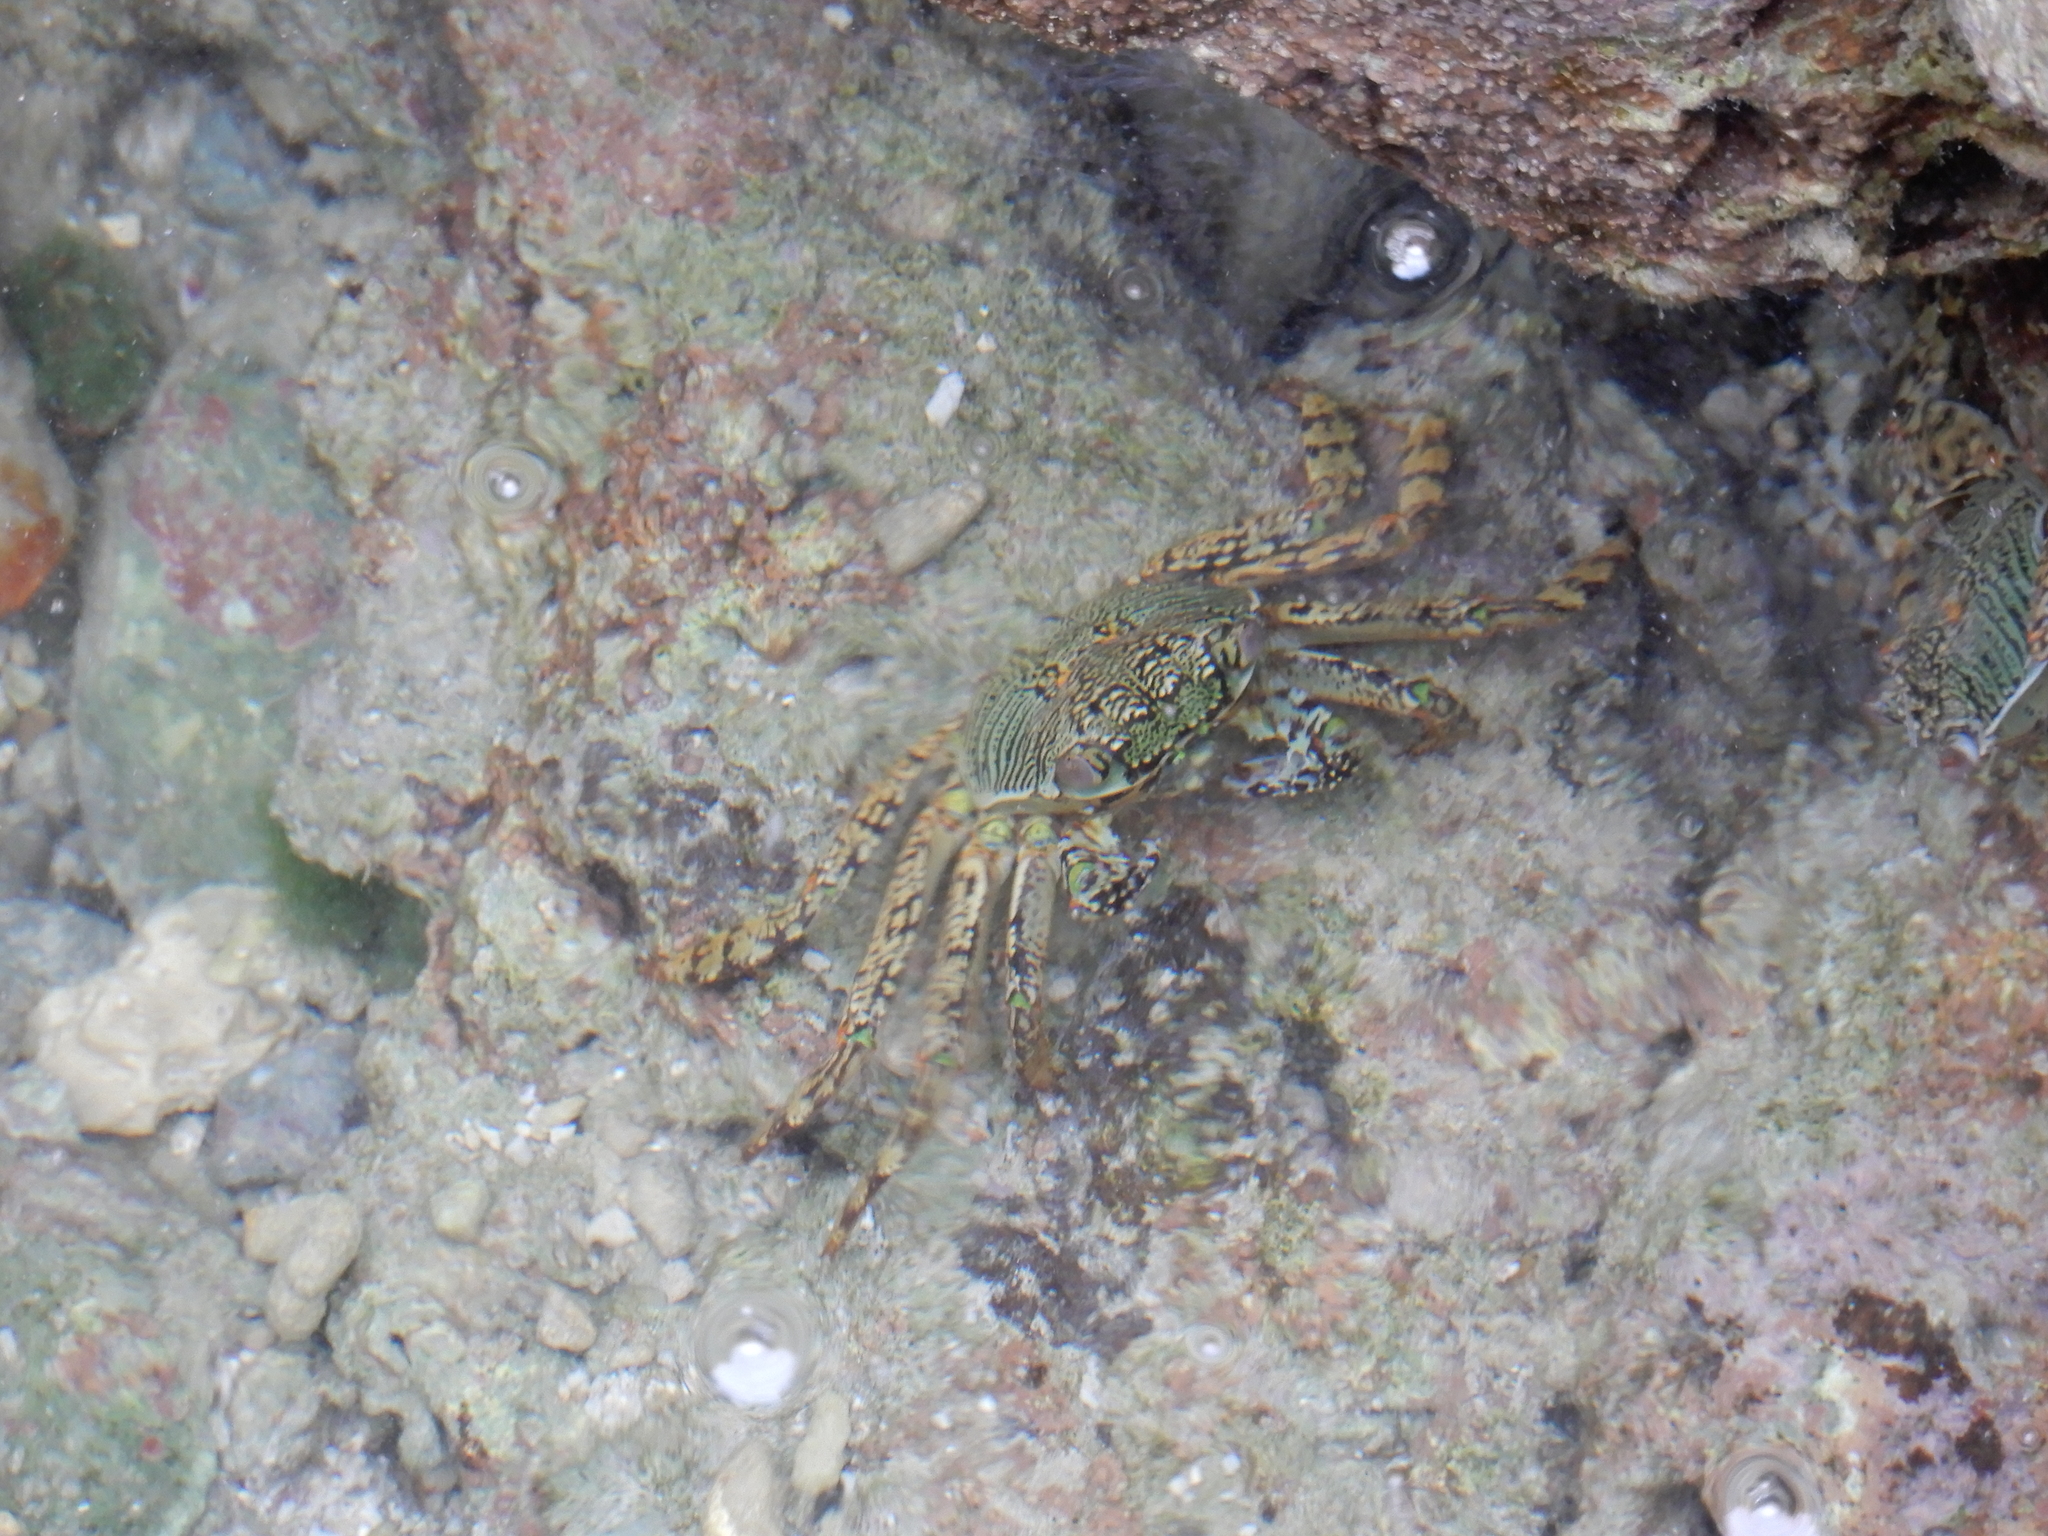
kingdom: Animalia
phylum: Arthropoda
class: Malacostraca
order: Decapoda
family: Grapsidae
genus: Grapsus
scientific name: Grapsus albolineatus
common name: Mottled lightfoot crab
